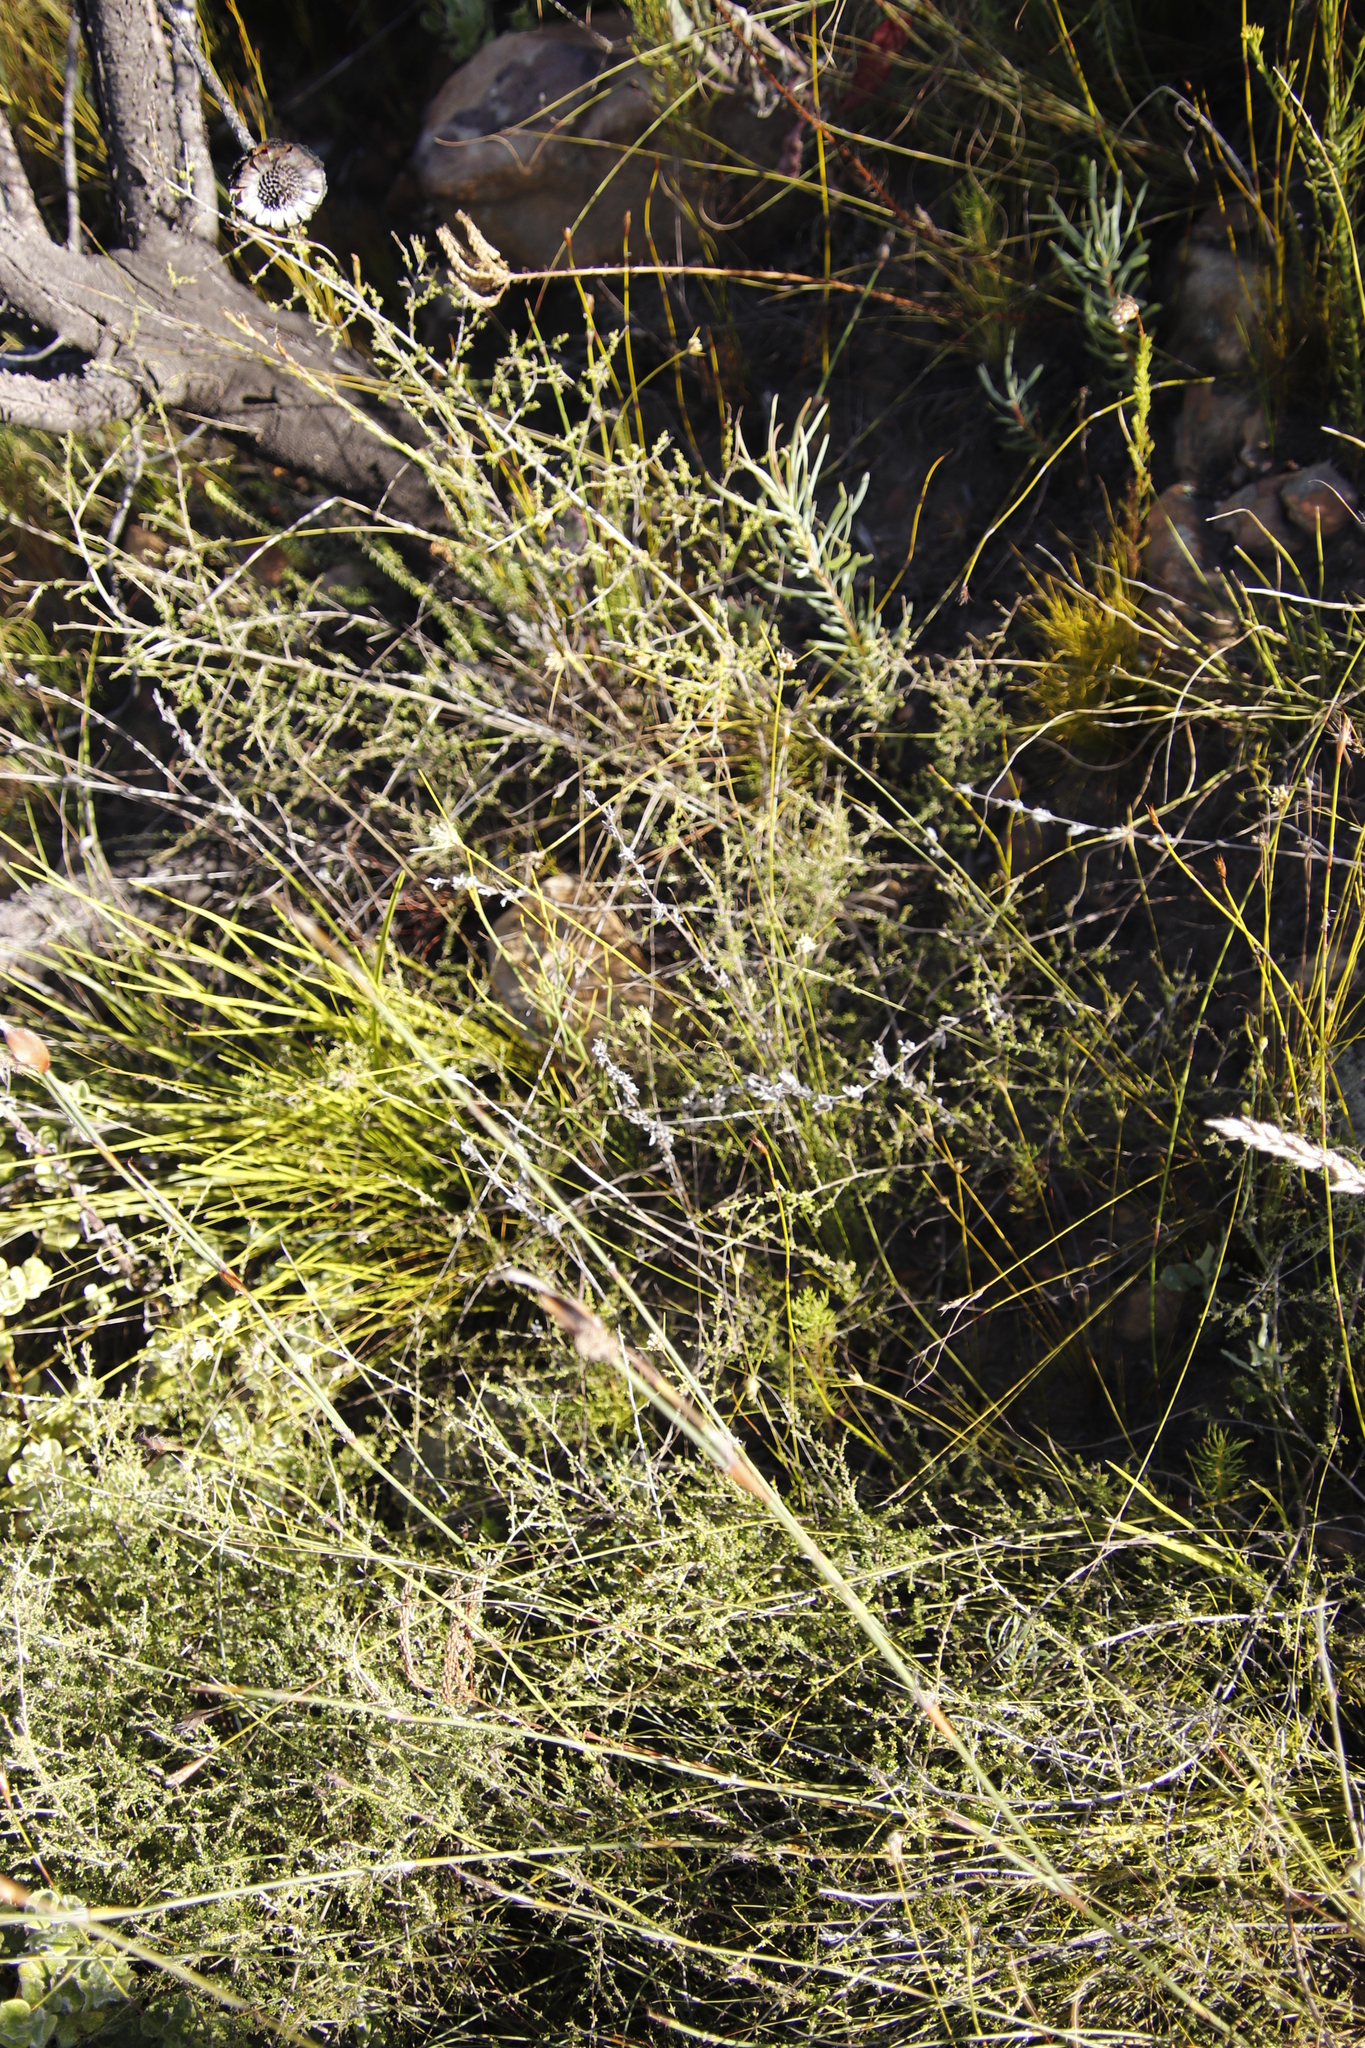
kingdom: Plantae
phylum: Tracheophyta
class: Magnoliopsida
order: Proteales
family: Proteaceae
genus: Protea
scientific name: Protea repens
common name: Sugarbush
